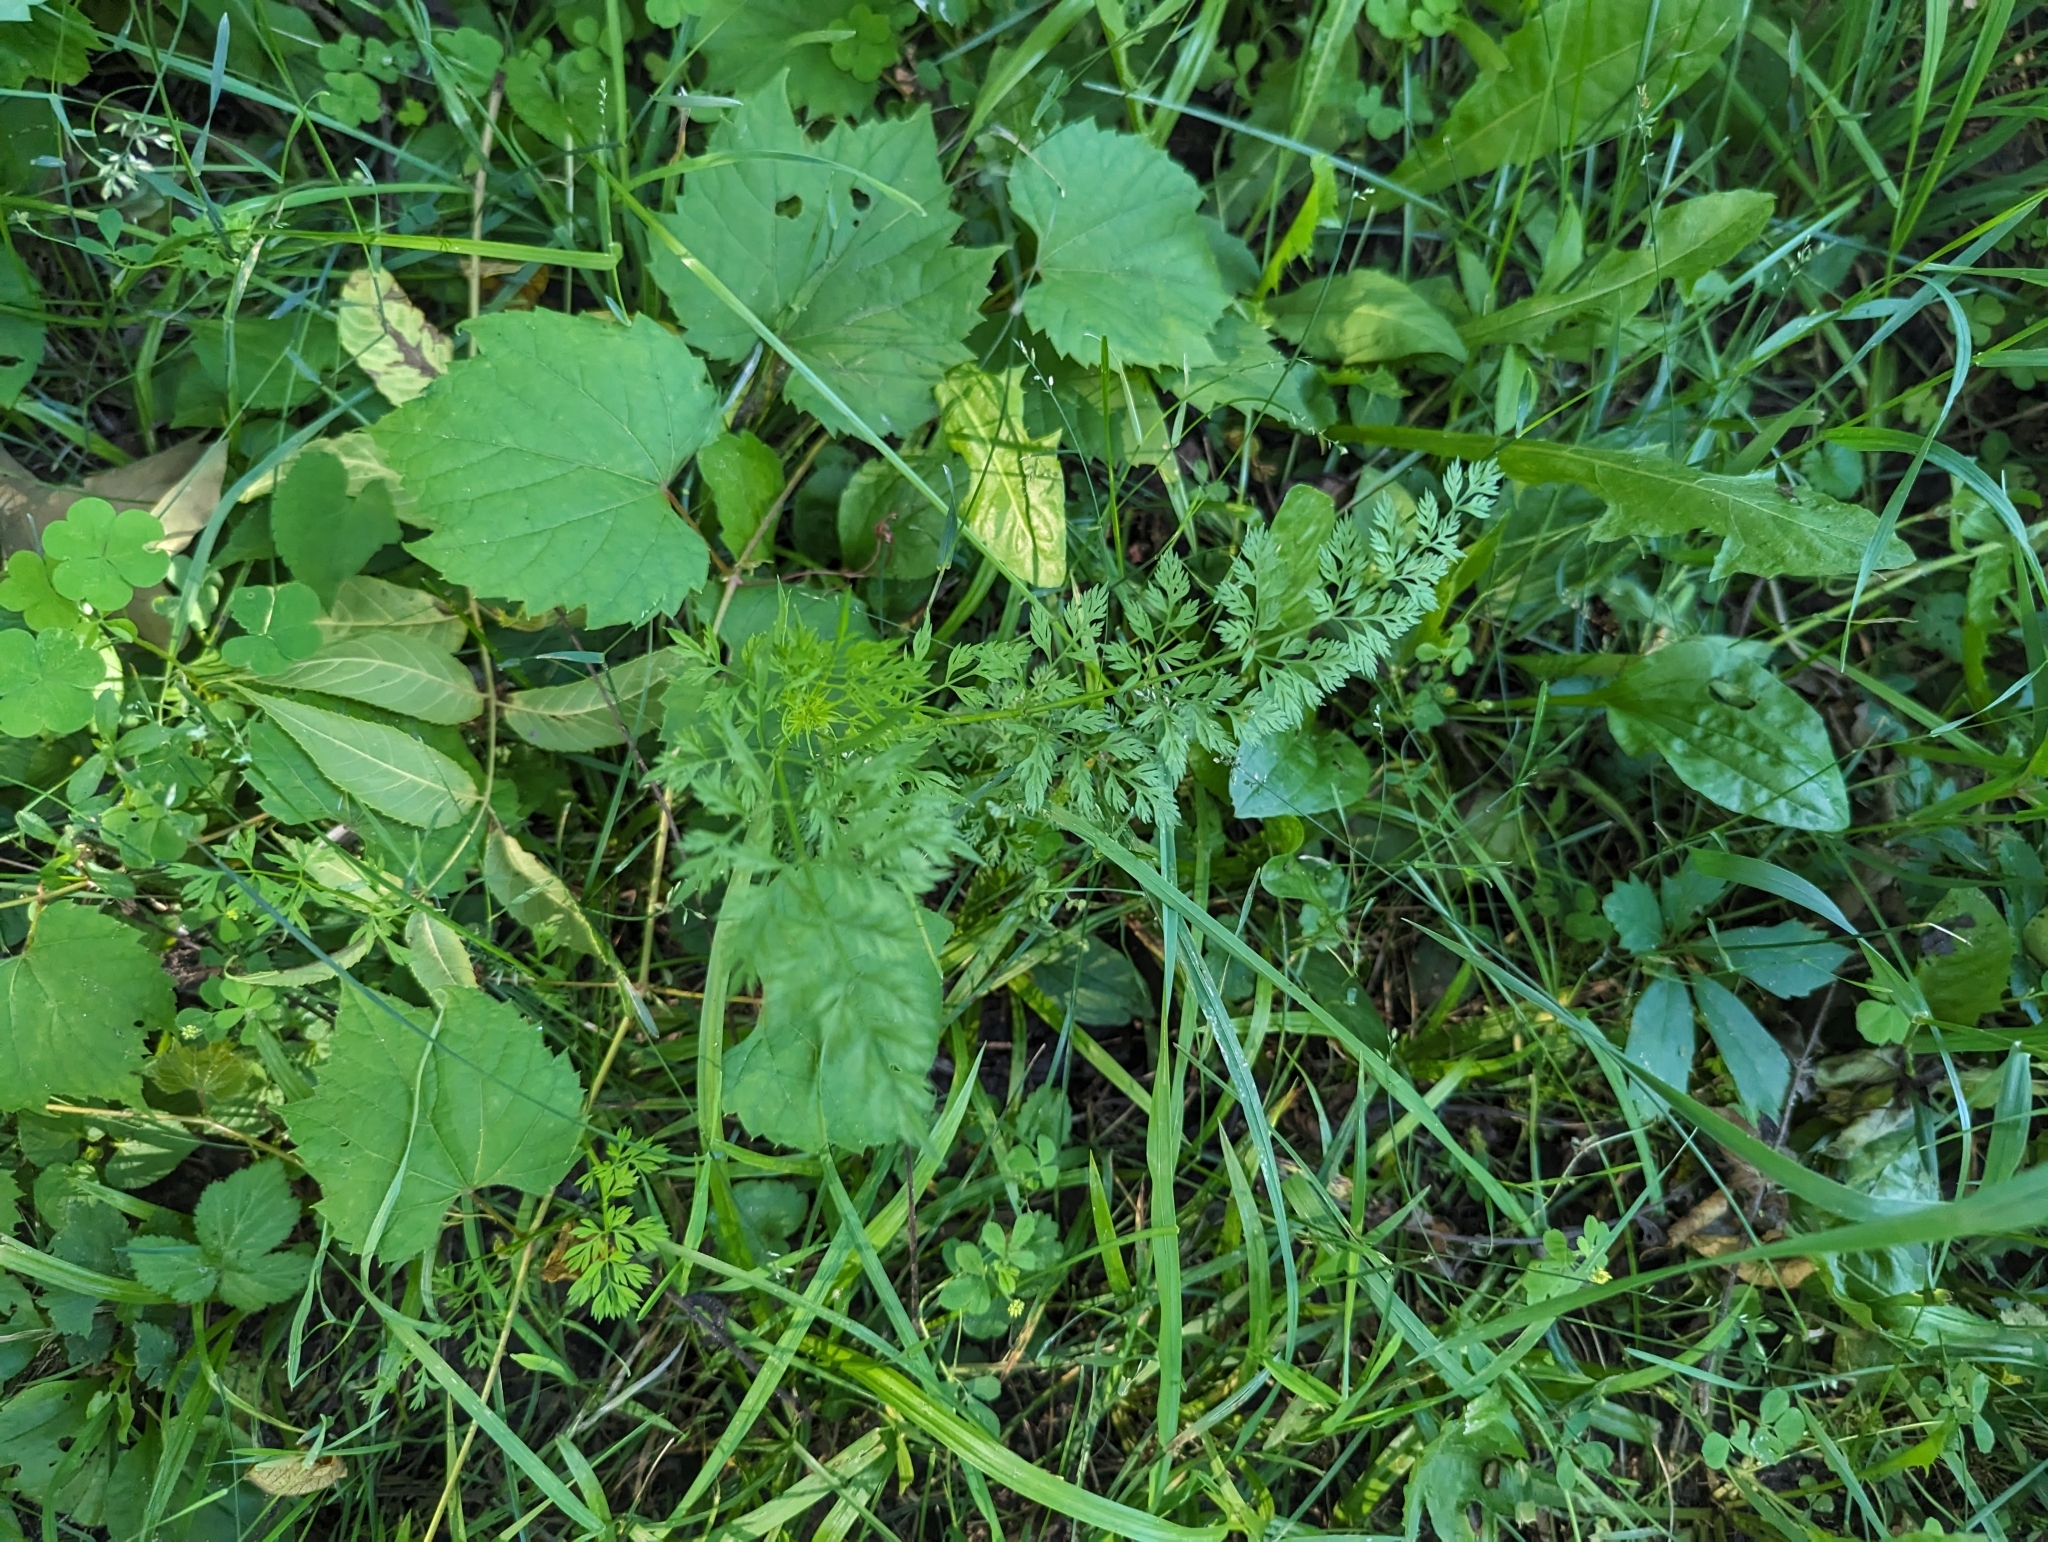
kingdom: Plantae
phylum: Tracheophyta
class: Magnoliopsida
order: Apiales
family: Apiaceae
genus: Daucus
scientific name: Daucus carota
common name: Wild carrot
